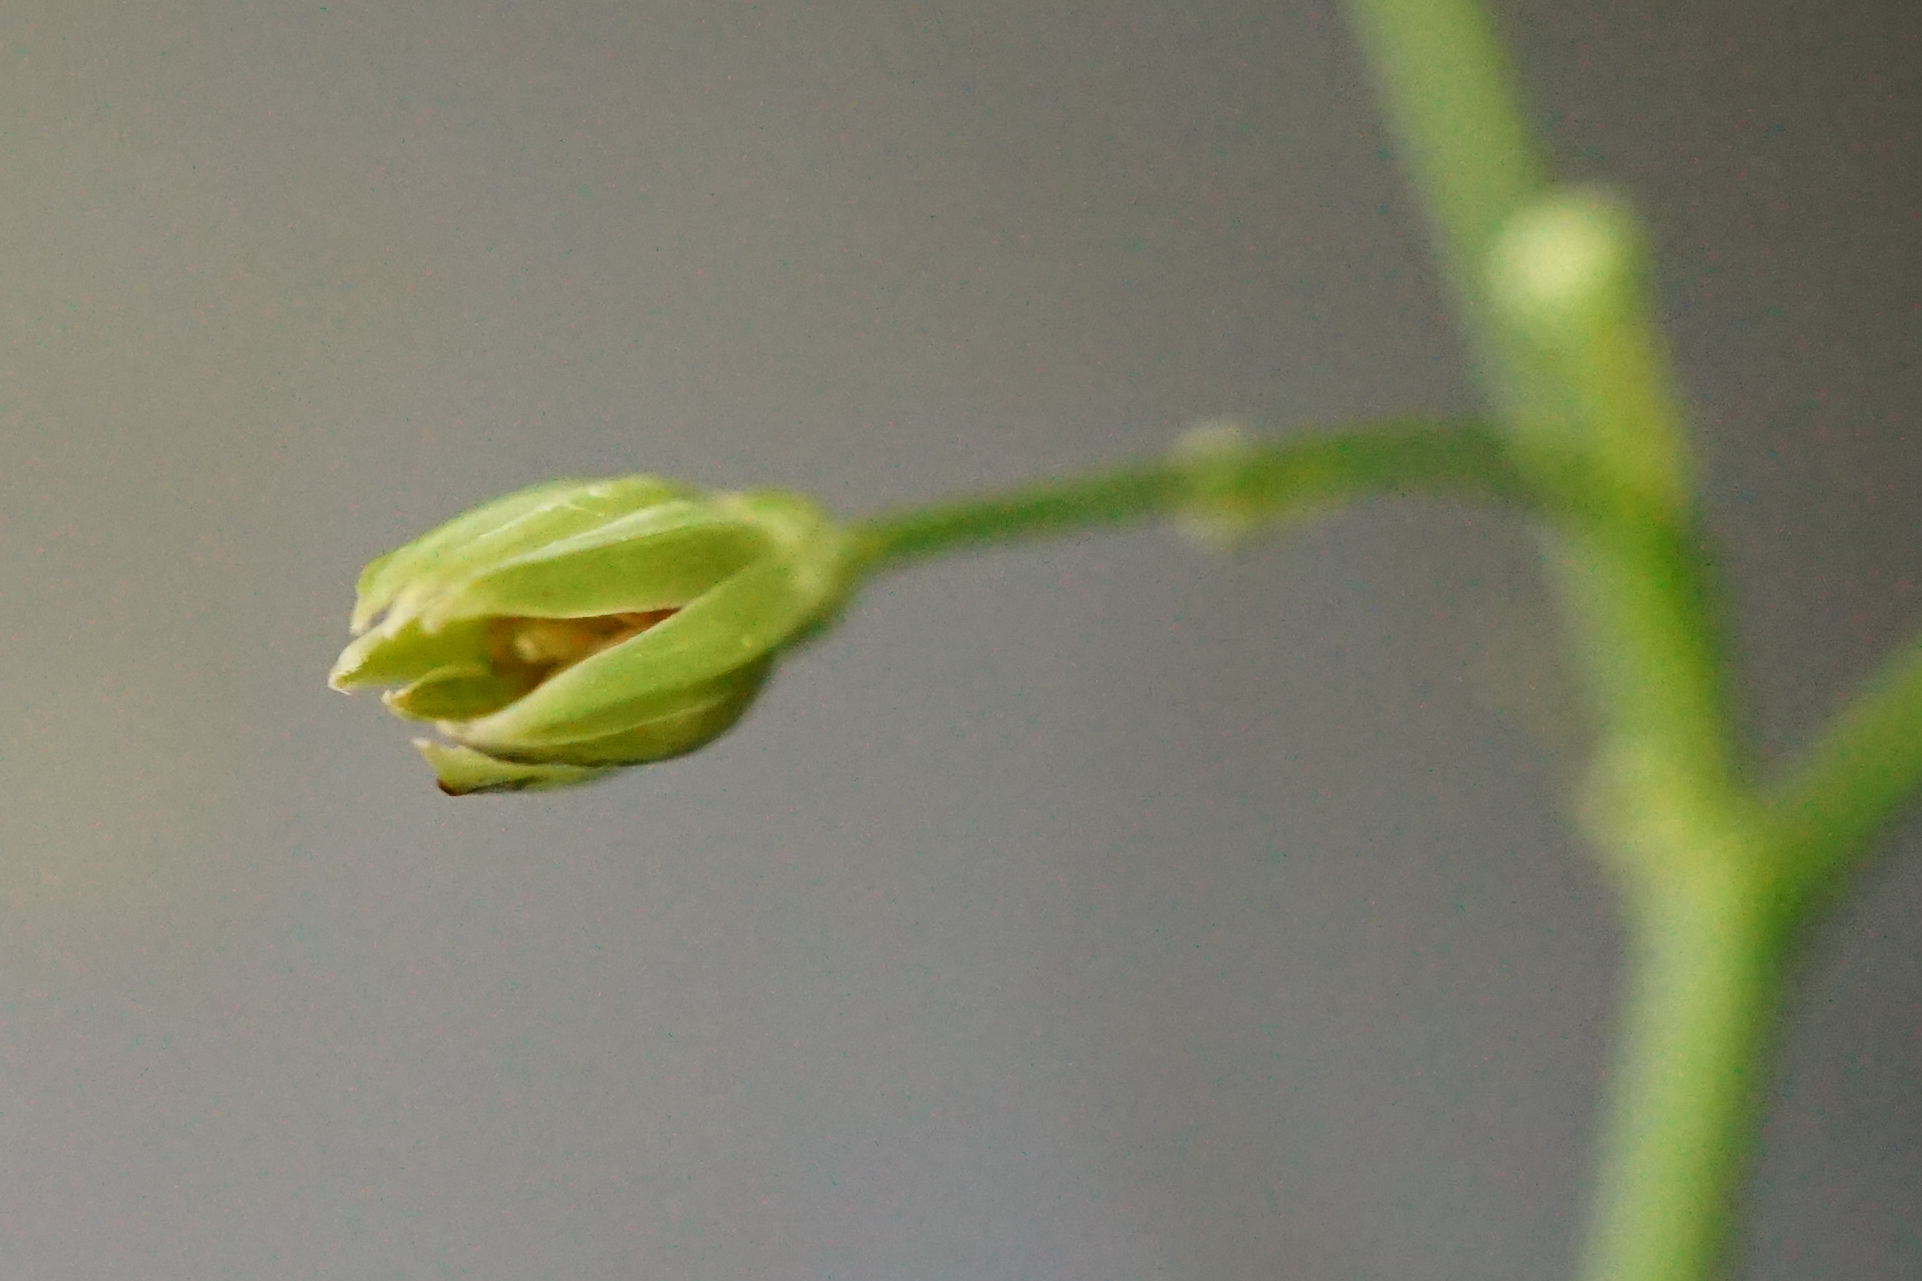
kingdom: Plantae
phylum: Tracheophyta
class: Magnoliopsida
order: Asterales
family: Asteraceae
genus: Lapsana
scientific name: Lapsana communis
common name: Nipplewort
